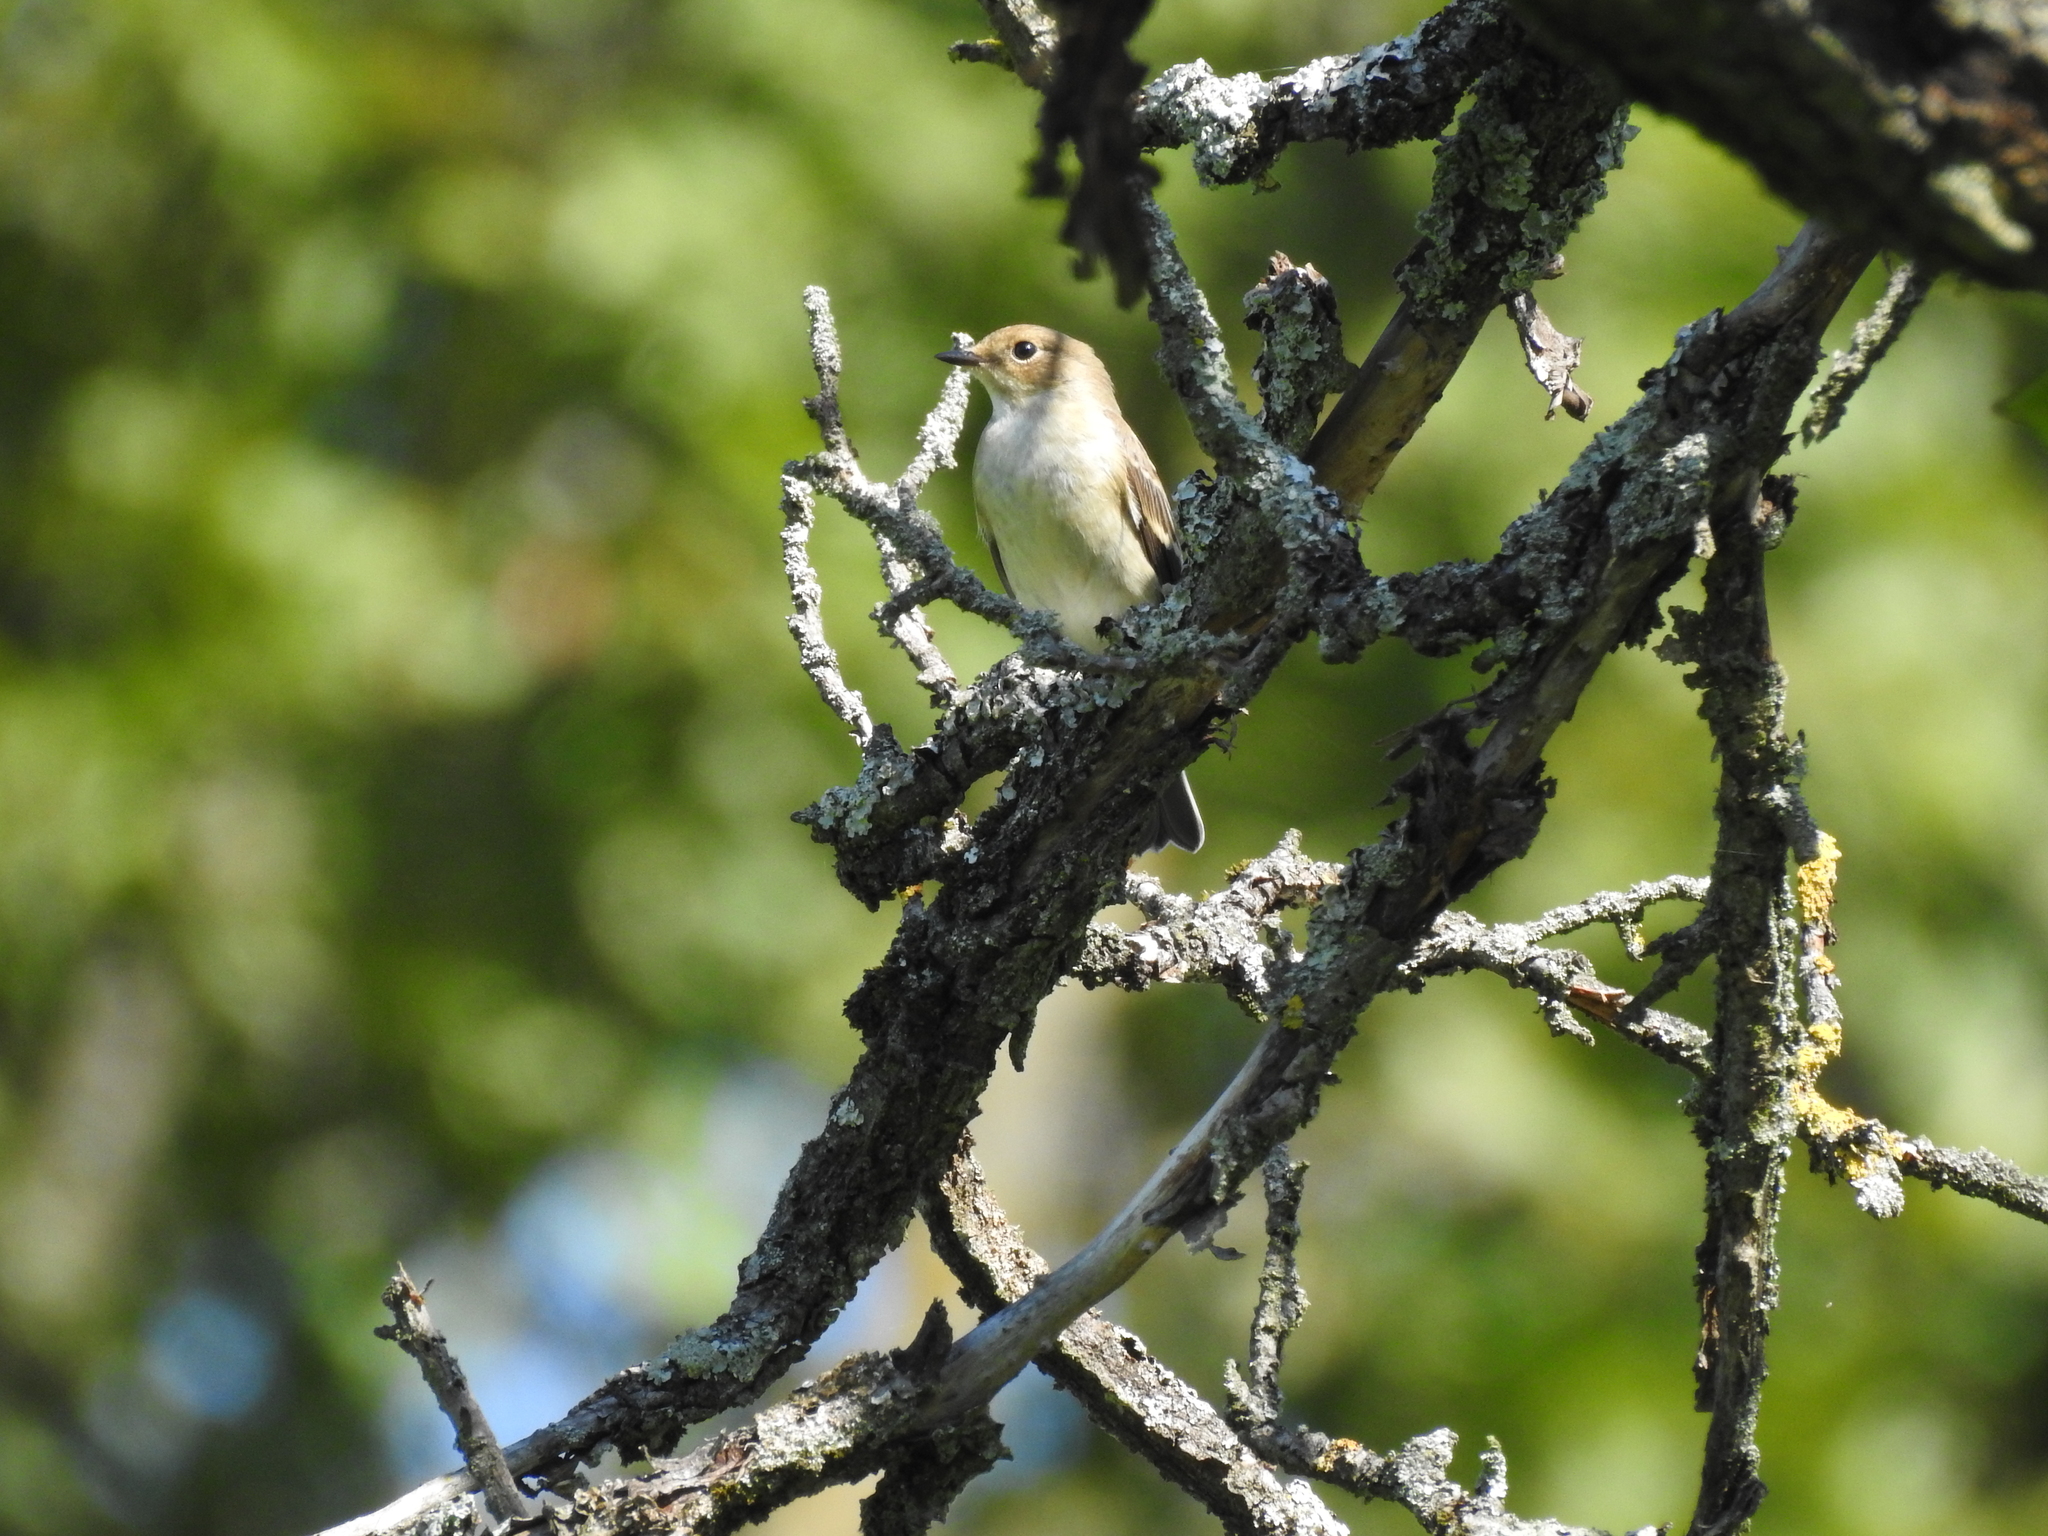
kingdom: Animalia
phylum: Chordata
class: Aves
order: Passeriformes
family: Muscicapidae
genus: Ficedula
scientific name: Ficedula hypoleuca
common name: European pied flycatcher
